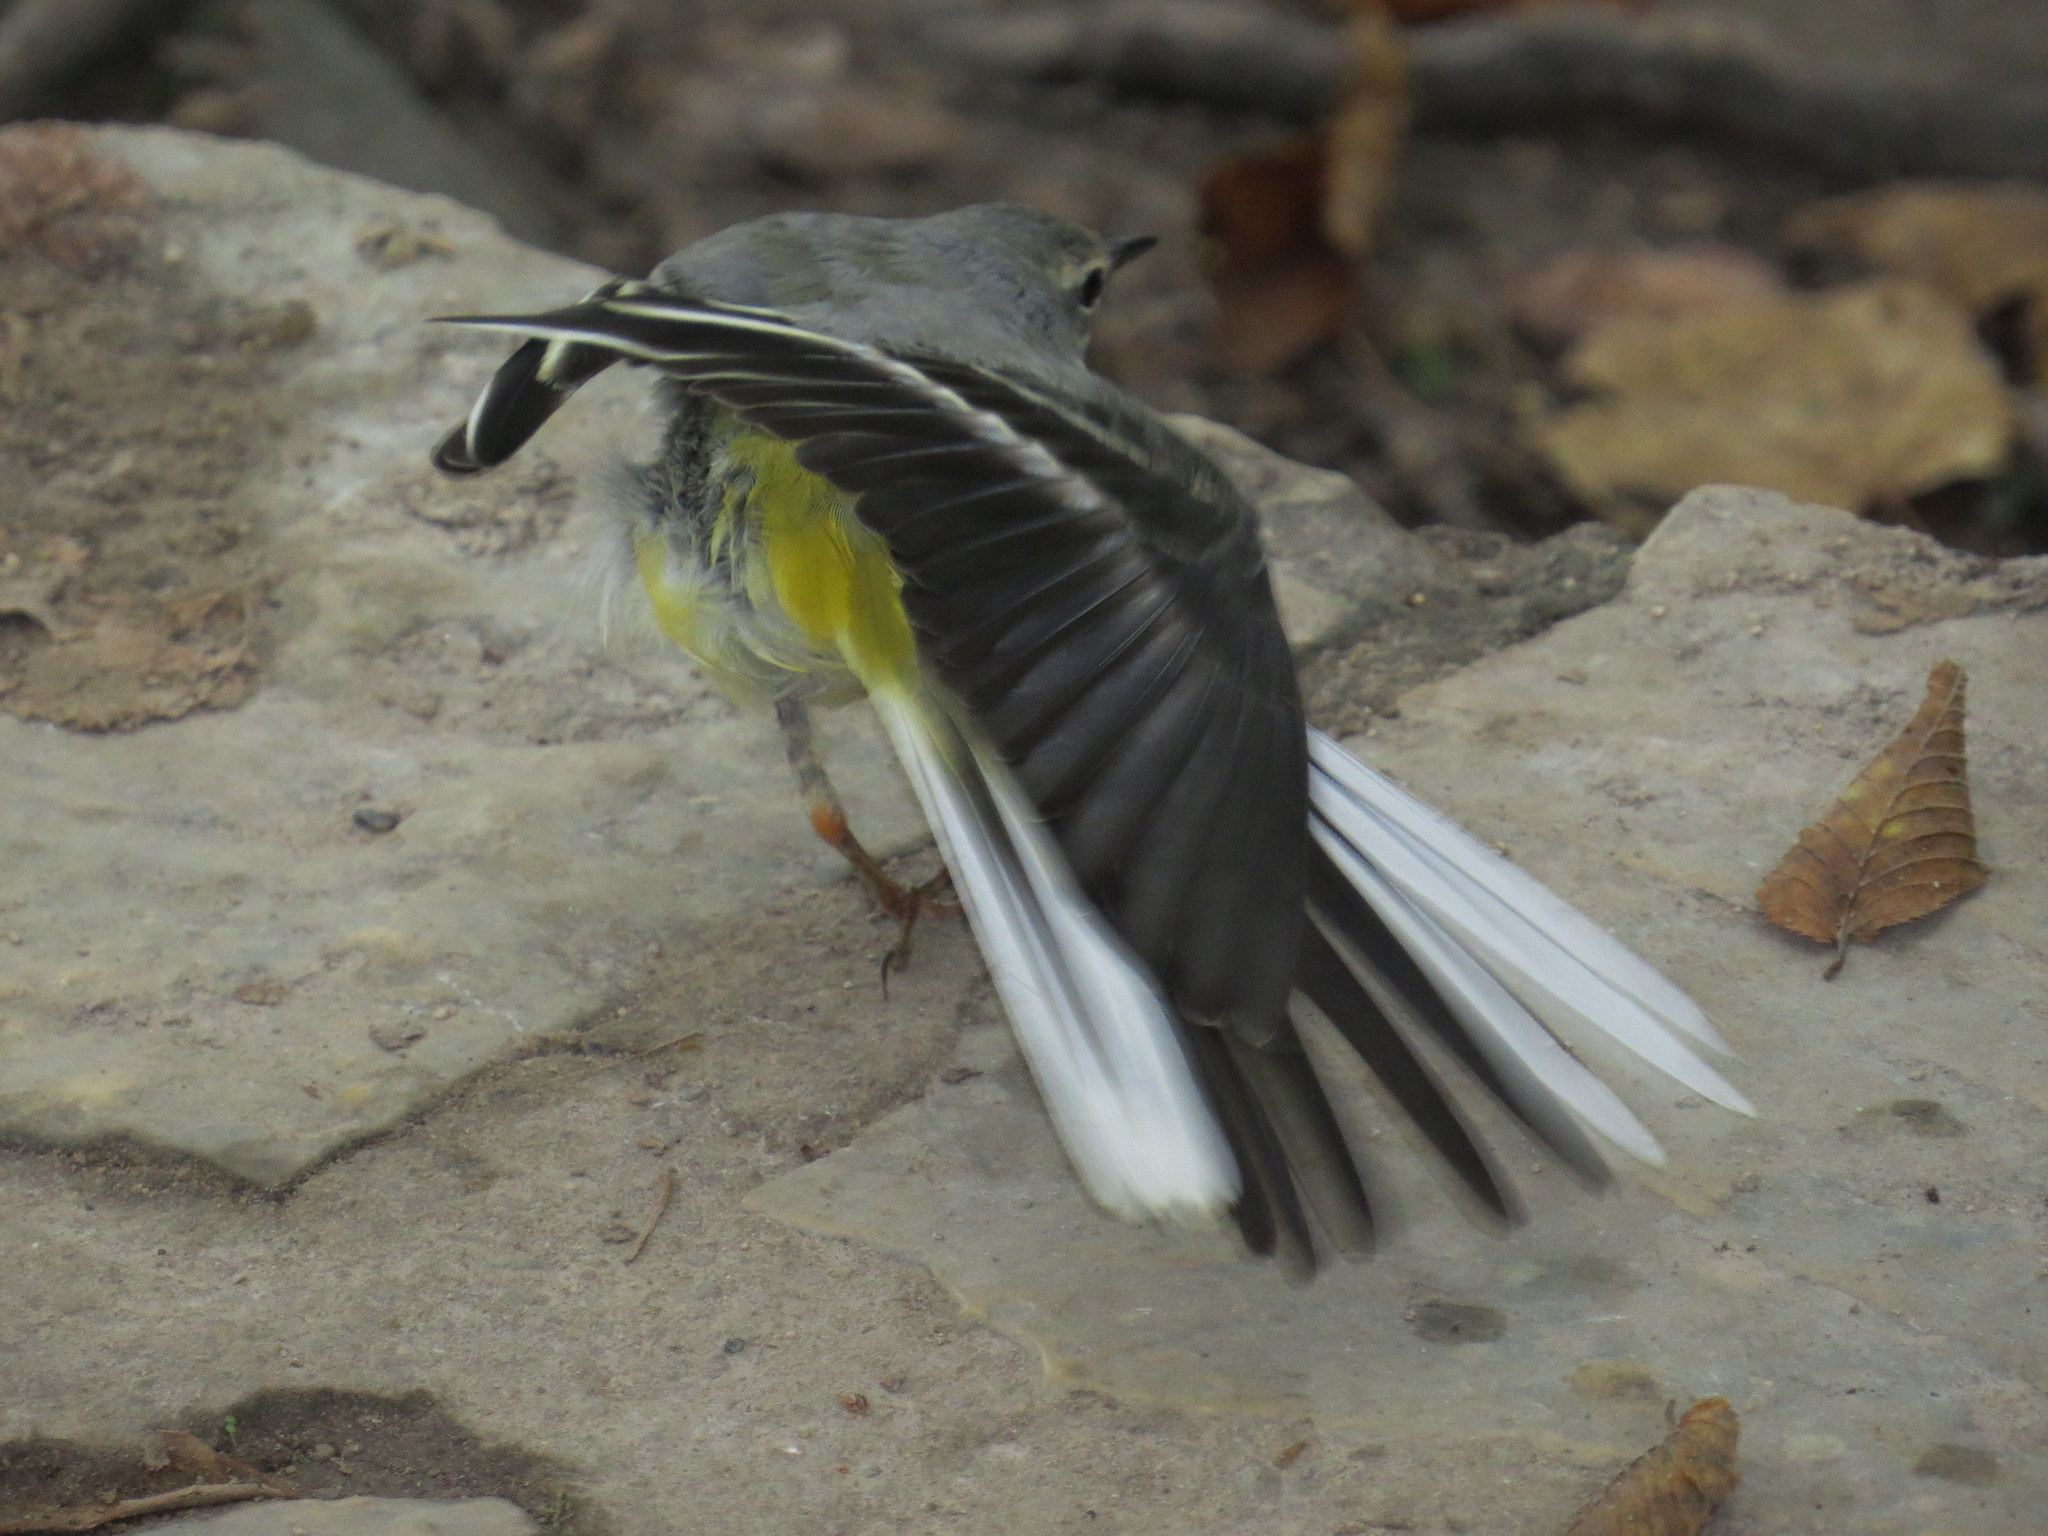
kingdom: Animalia
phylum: Chordata
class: Aves
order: Passeriformes
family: Motacillidae
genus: Motacilla
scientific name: Motacilla cinerea
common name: Grey wagtail
